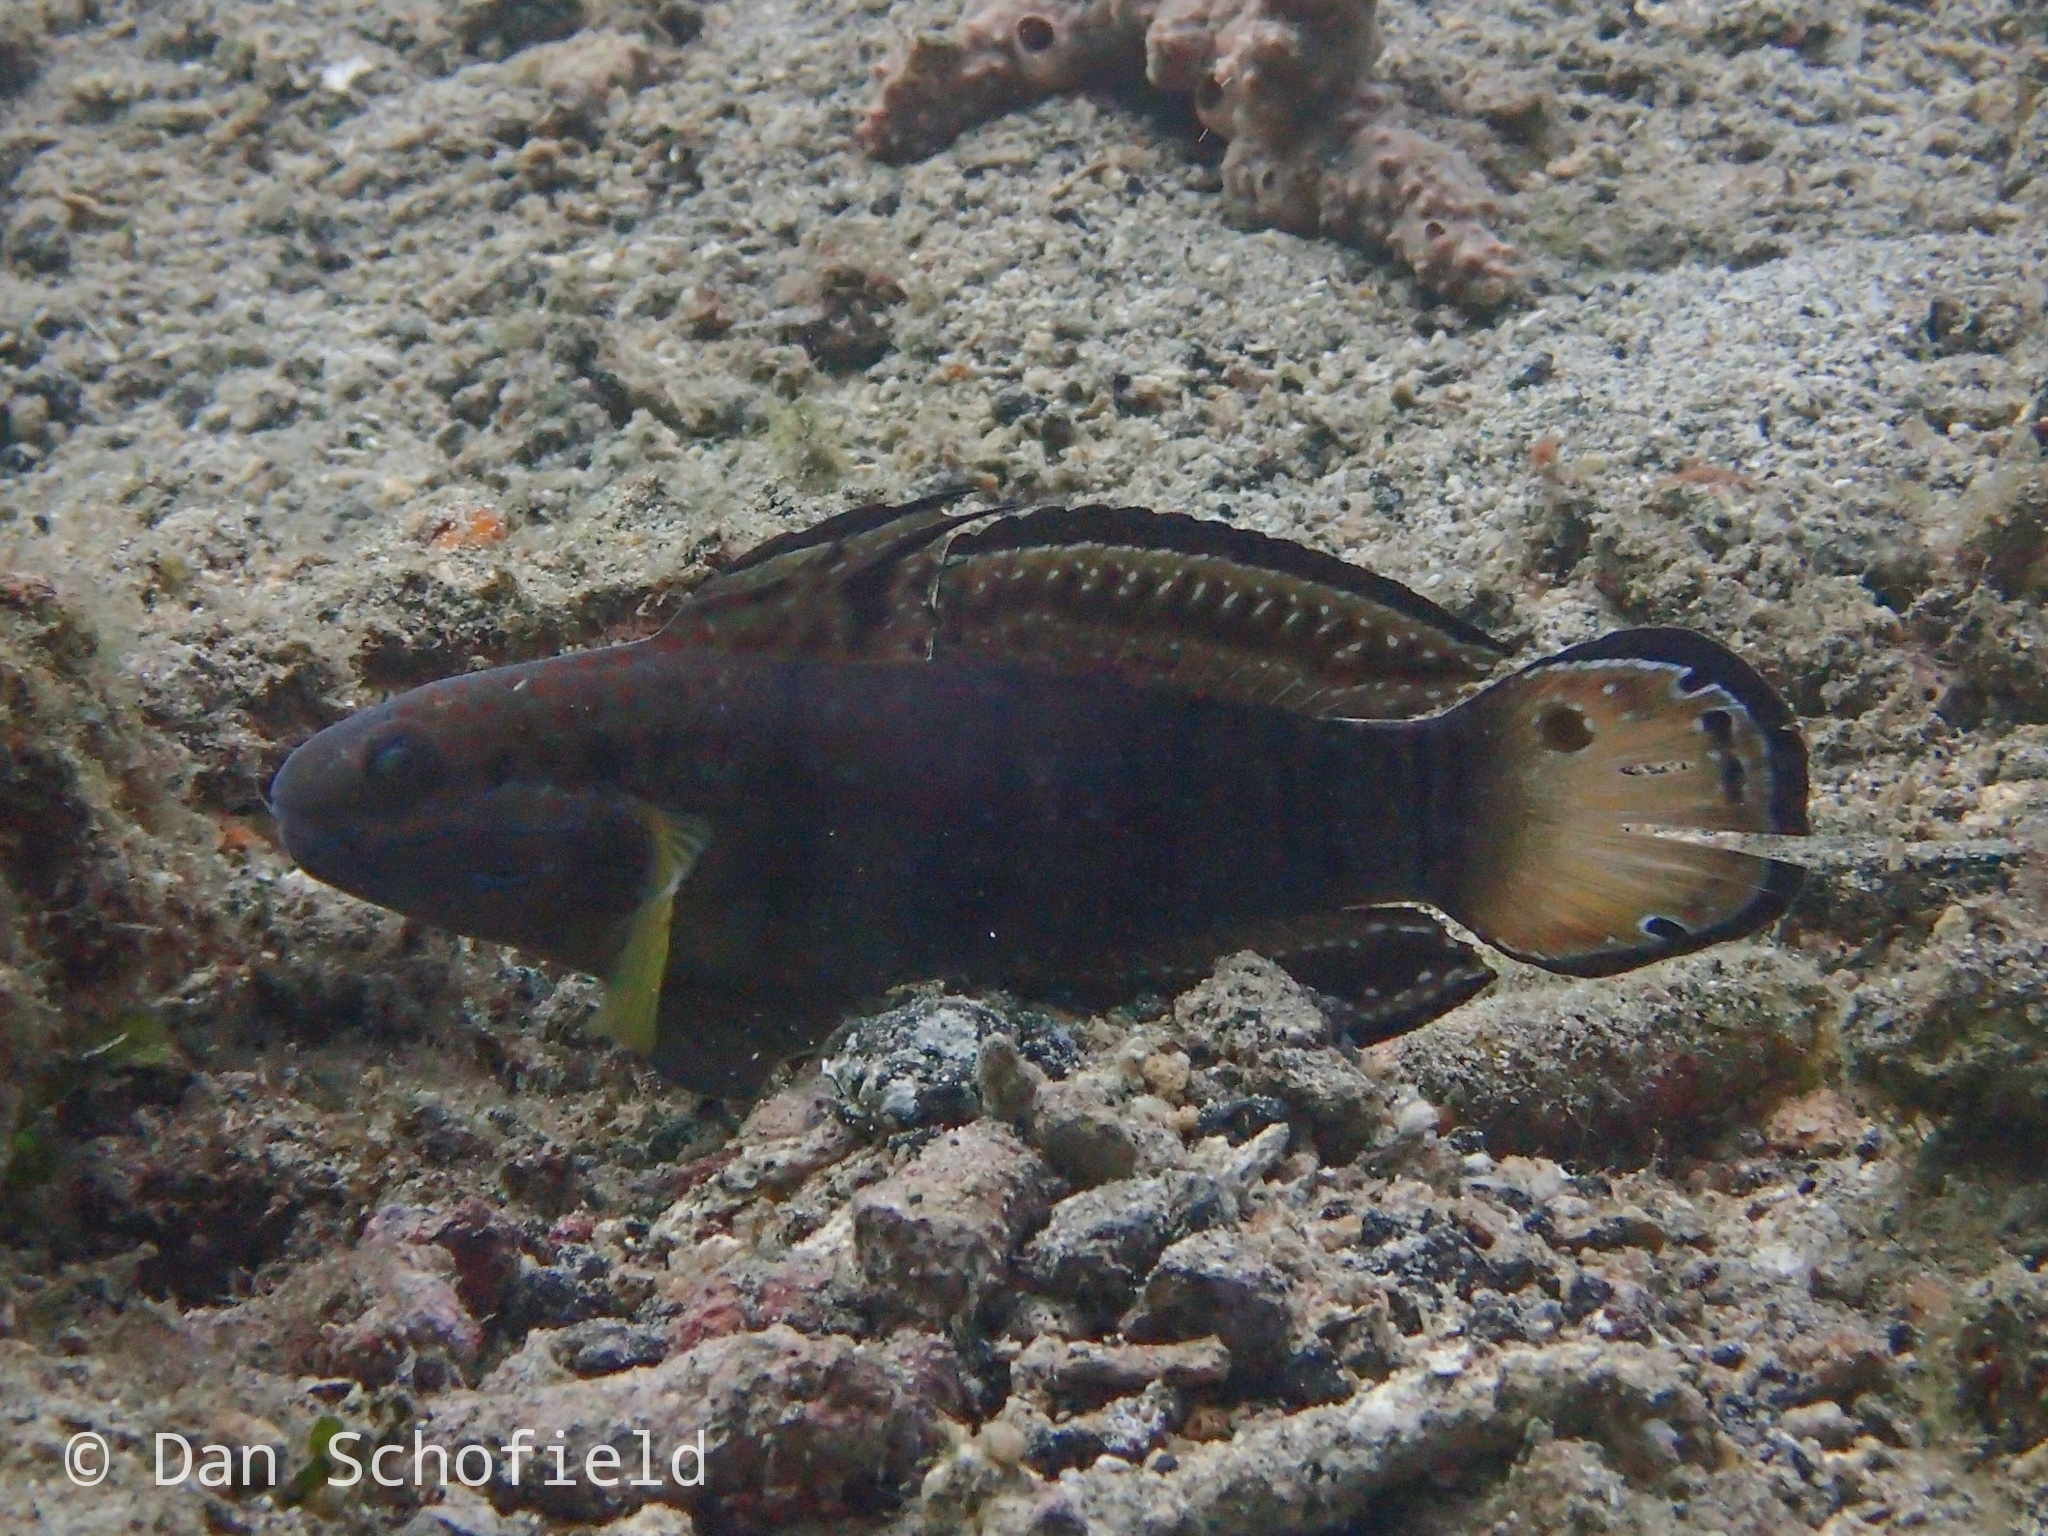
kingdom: Animalia
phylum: Chordata
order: Perciformes
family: Gobiidae
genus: Amblygobius
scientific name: Amblygobius phalaena
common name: Banded goby
